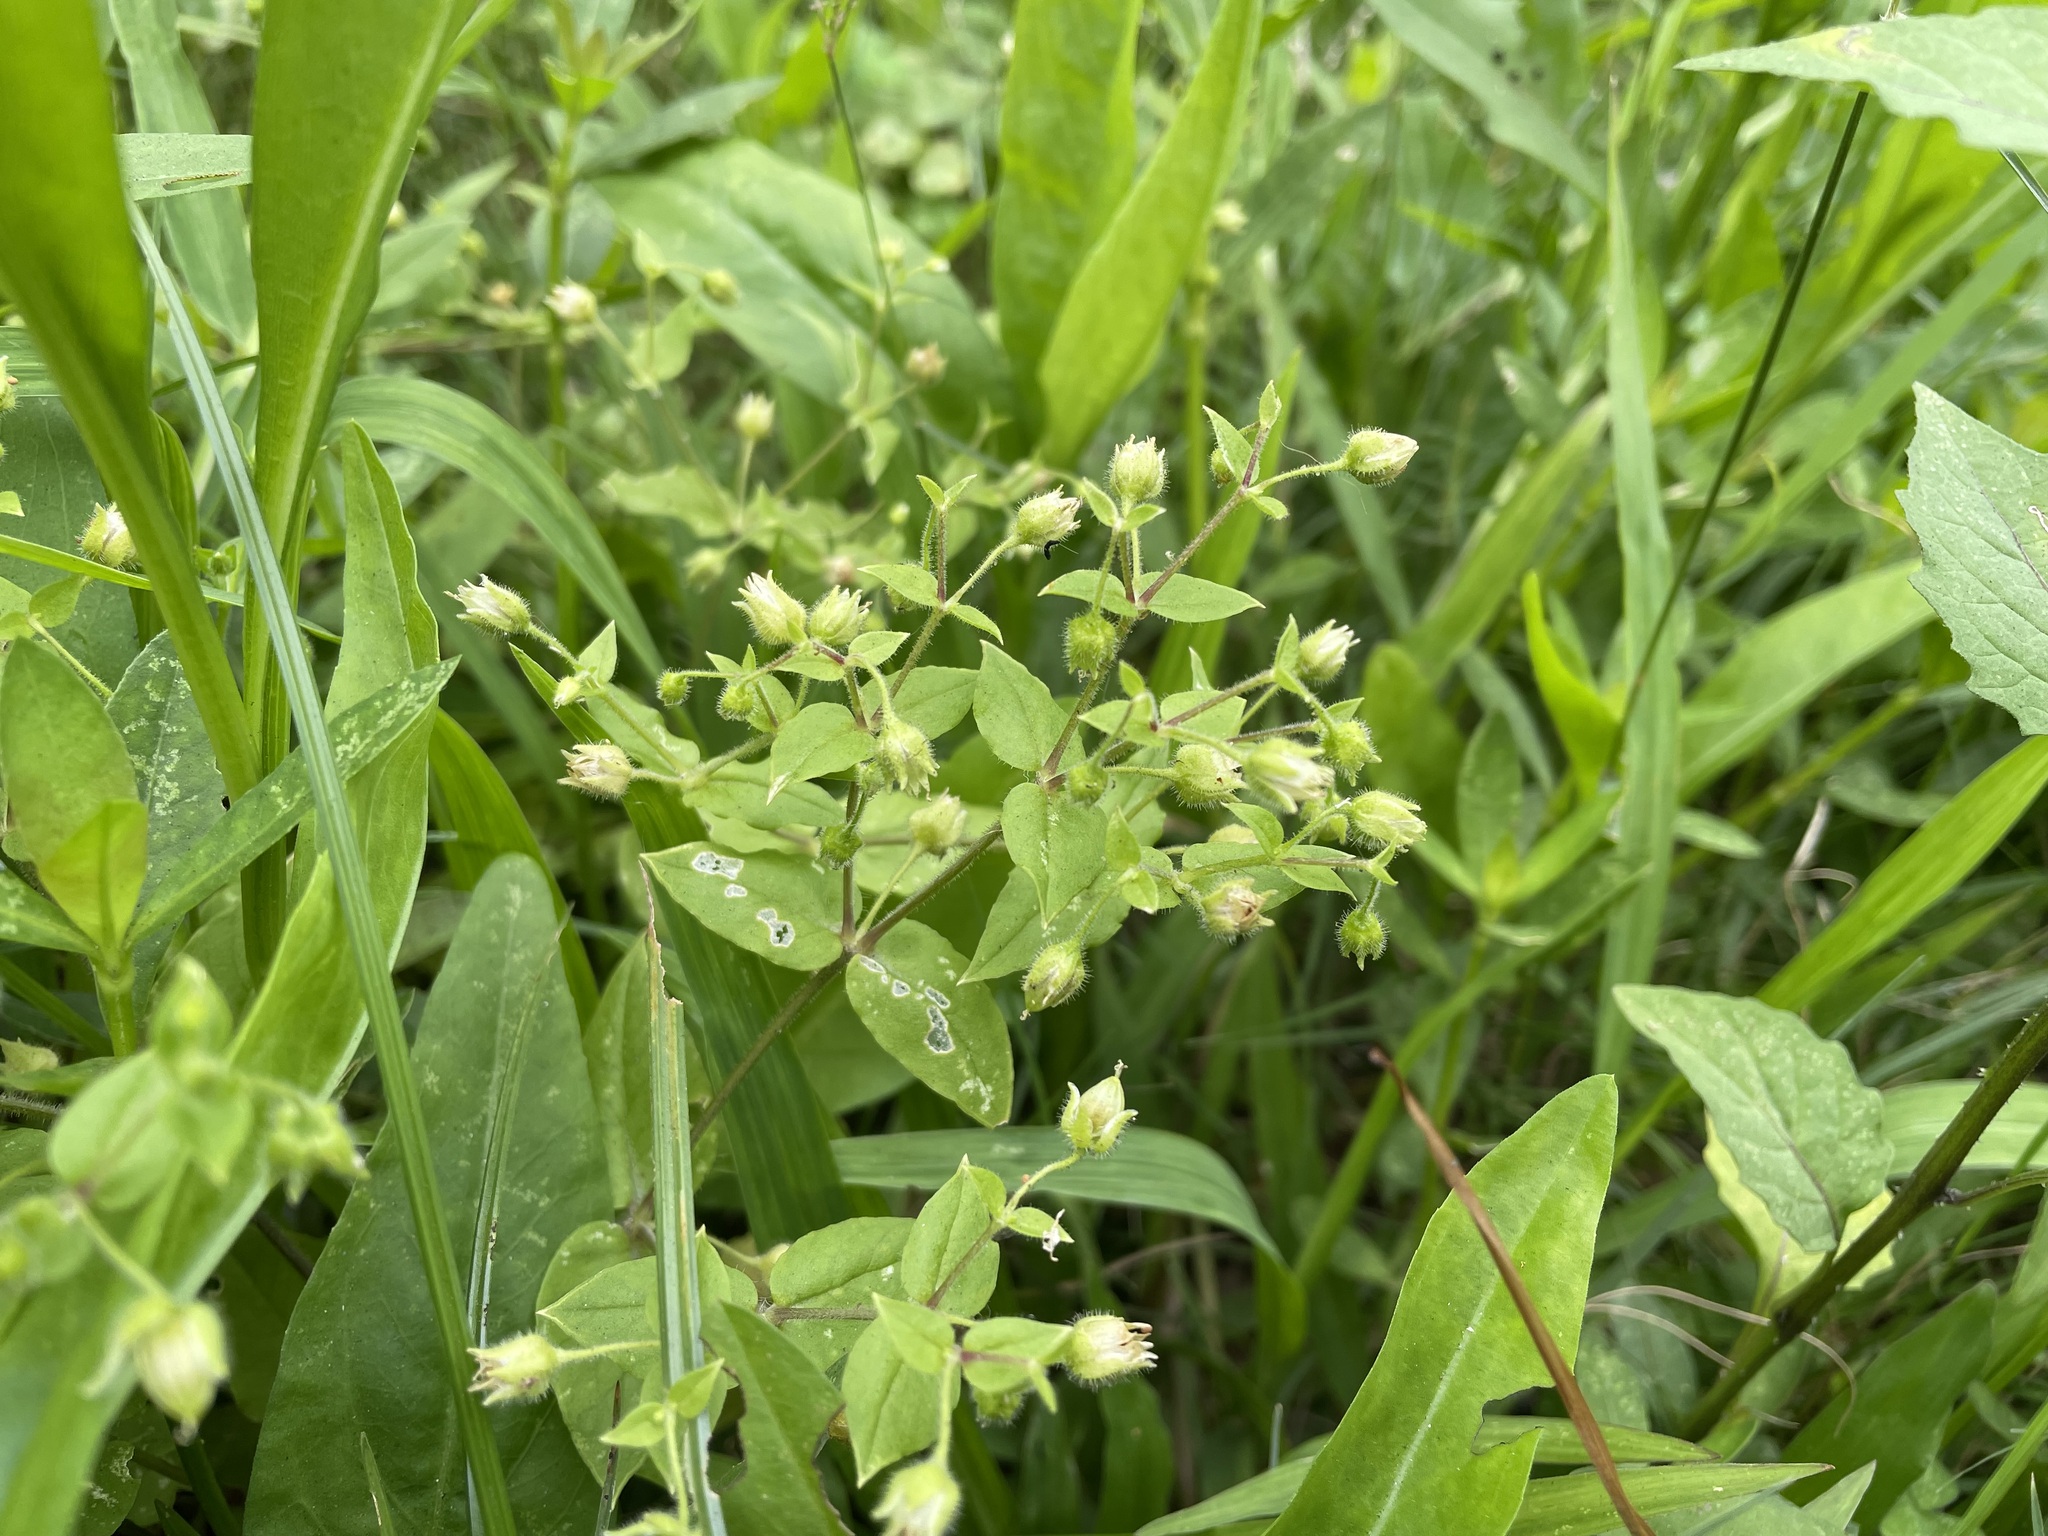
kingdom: Plantae
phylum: Tracheophyta
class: Magnoliopsida
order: Caryophyllales
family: Caryophyllaceae
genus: Stellaria
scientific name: Stellaria aquatica
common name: Water chickweed
